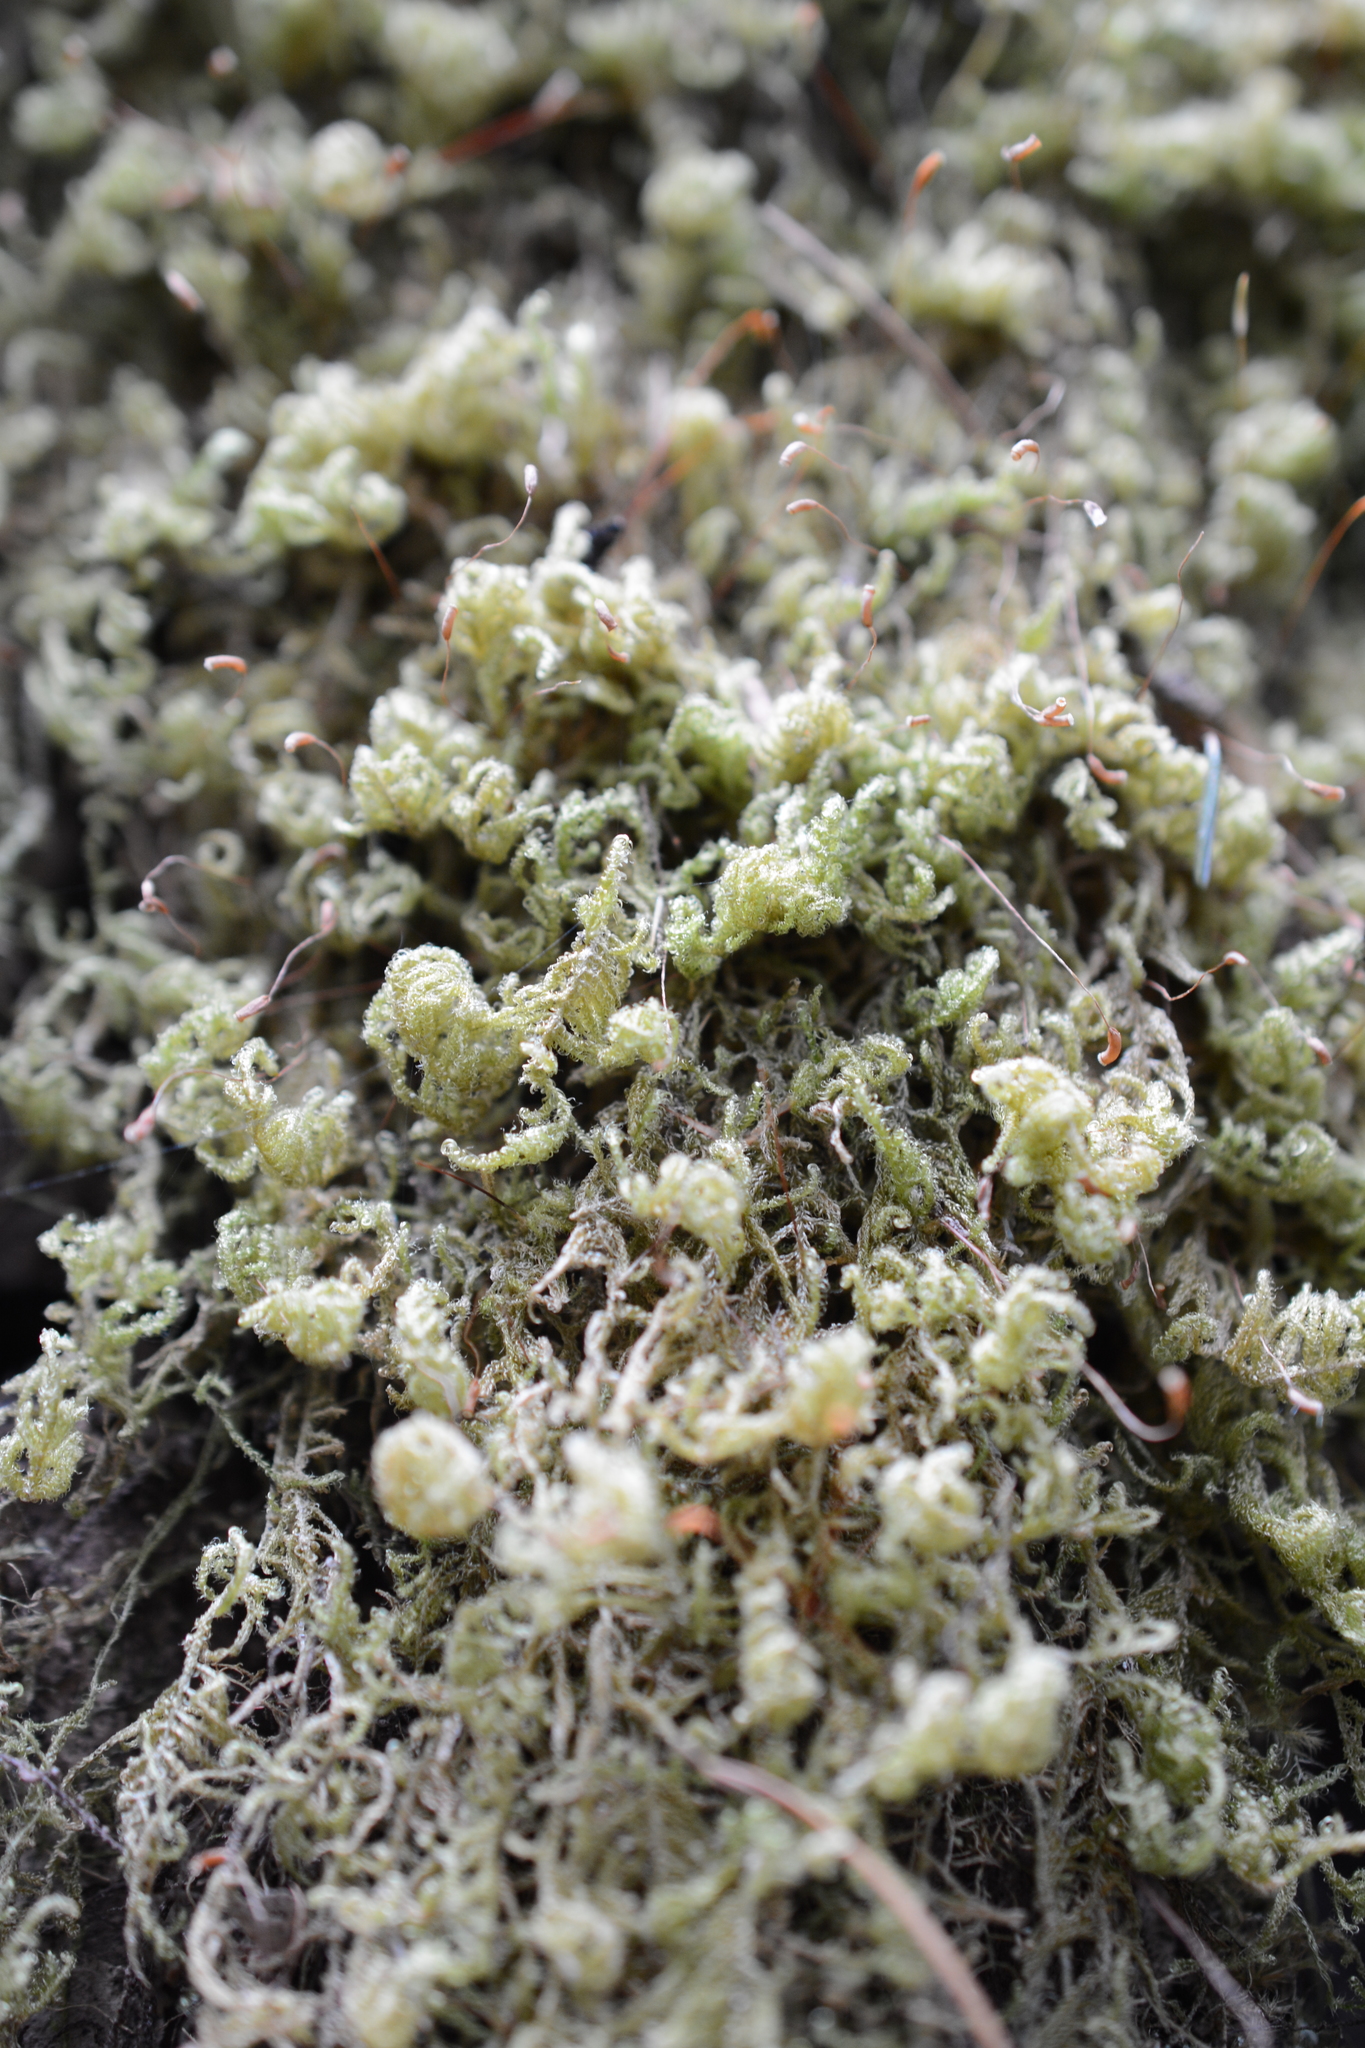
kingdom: Plantae
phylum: Bryophyta
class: Bryopsida
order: Hypnales
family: Stereodontaceae
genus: Stereodon
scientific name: Stereodon subimponens
